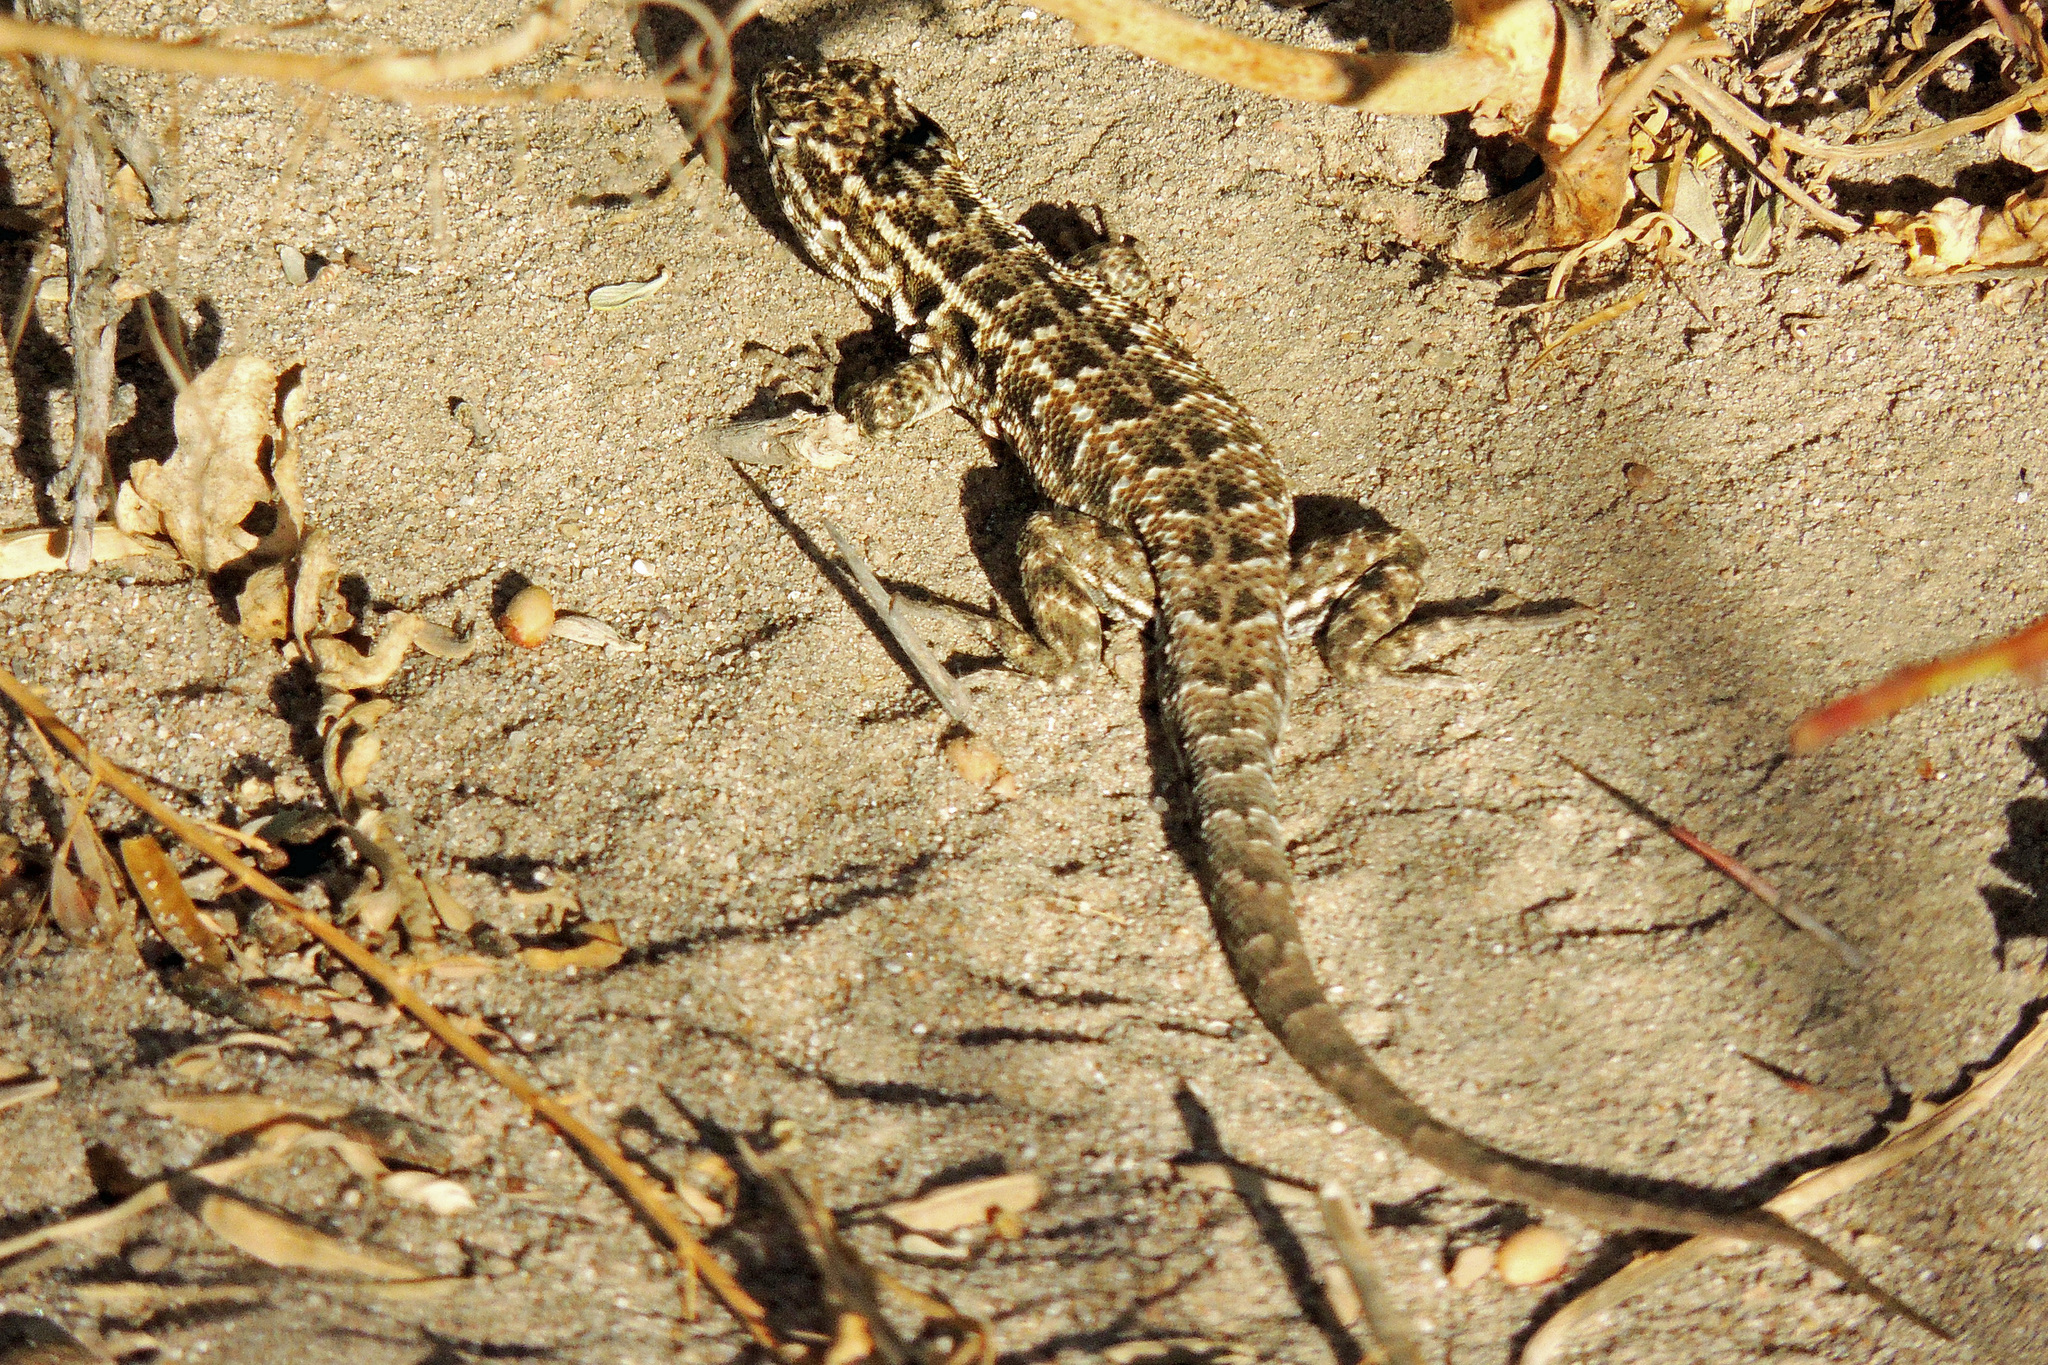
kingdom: Animalia
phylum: Chordata
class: Squamata
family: Liolaemidae
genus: Liolaemus
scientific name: Liolaemus darwinii
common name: Darwin's tree iguana
